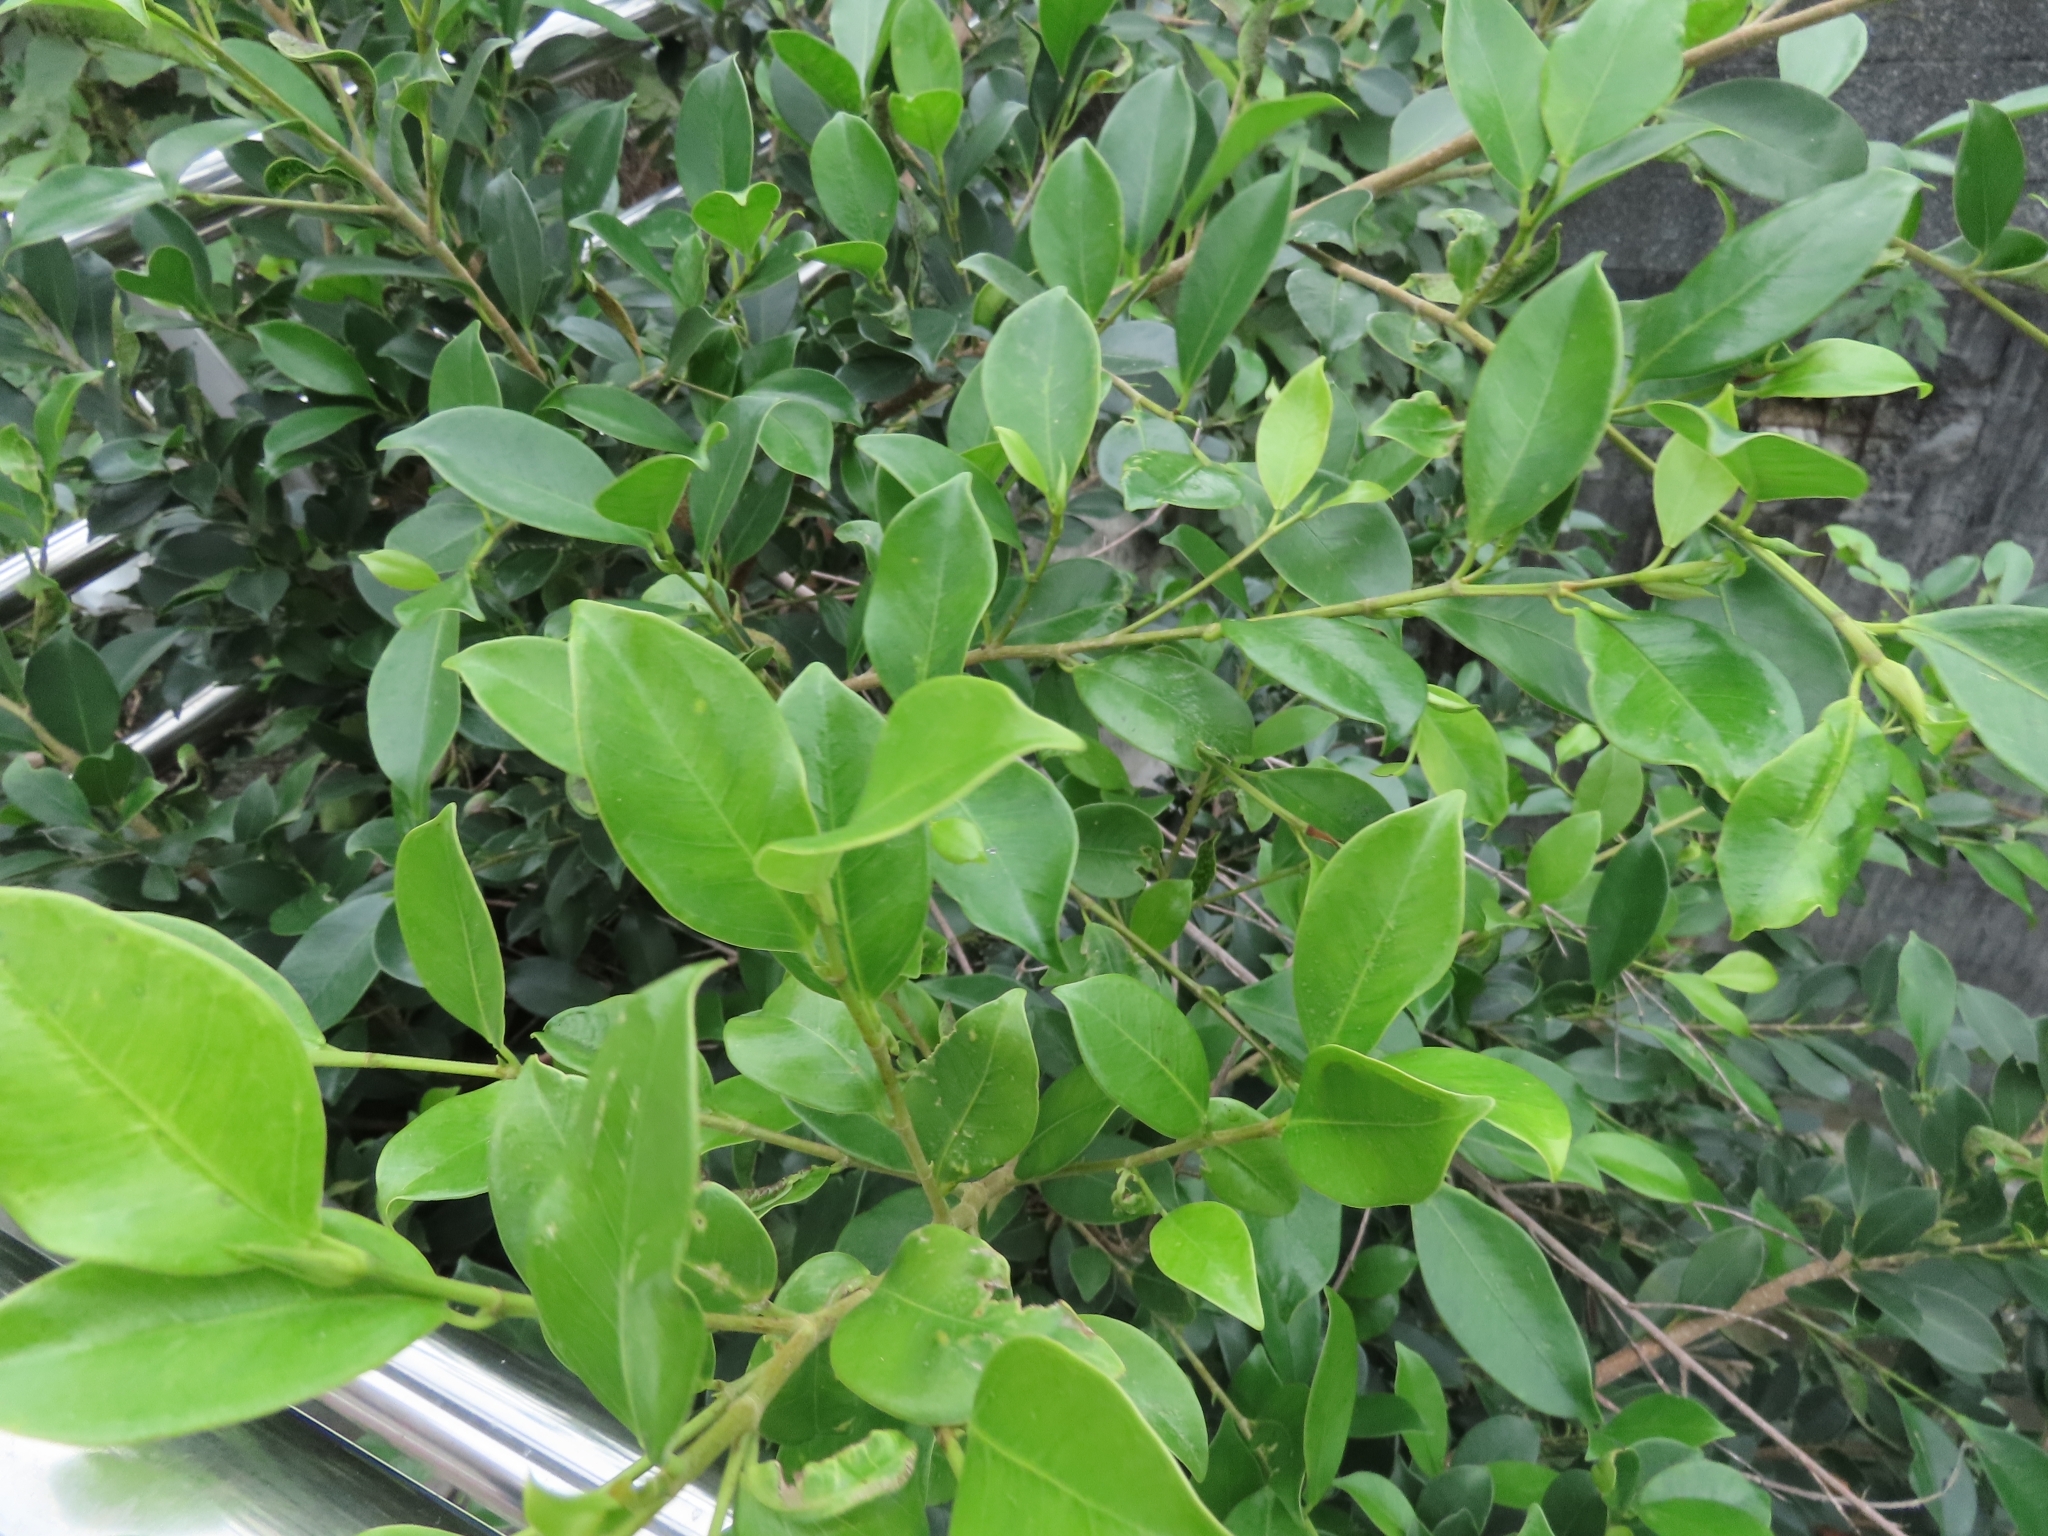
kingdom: Plantae
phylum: Tracheophyta
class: Magnoliopsida
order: Rosales
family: Moraceae
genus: Ficus
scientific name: Ficus microcarpa
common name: Chinese banyan
